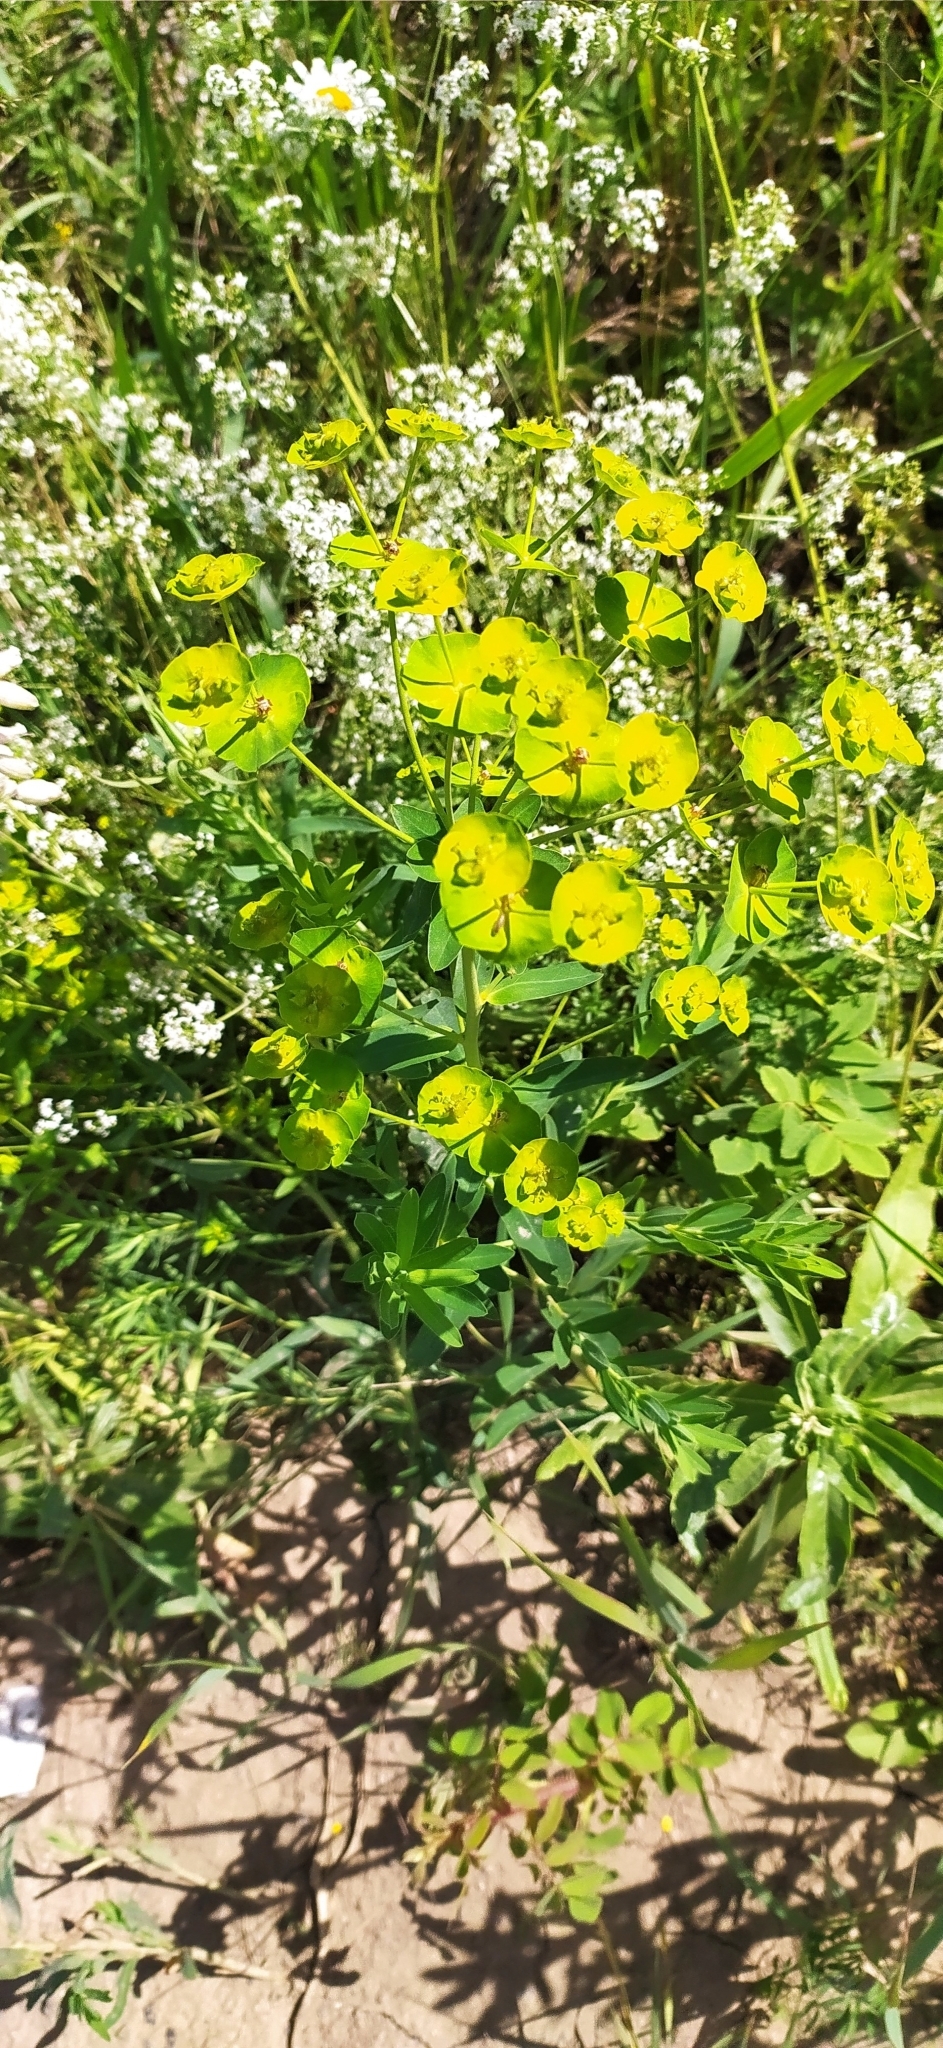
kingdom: Plantae
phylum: Tracheophyta
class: Magnoliopsida
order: Malpighiales
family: Euphorbiaceae
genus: Euphorbia
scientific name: Euphorbia virgata
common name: Leafy spurge
